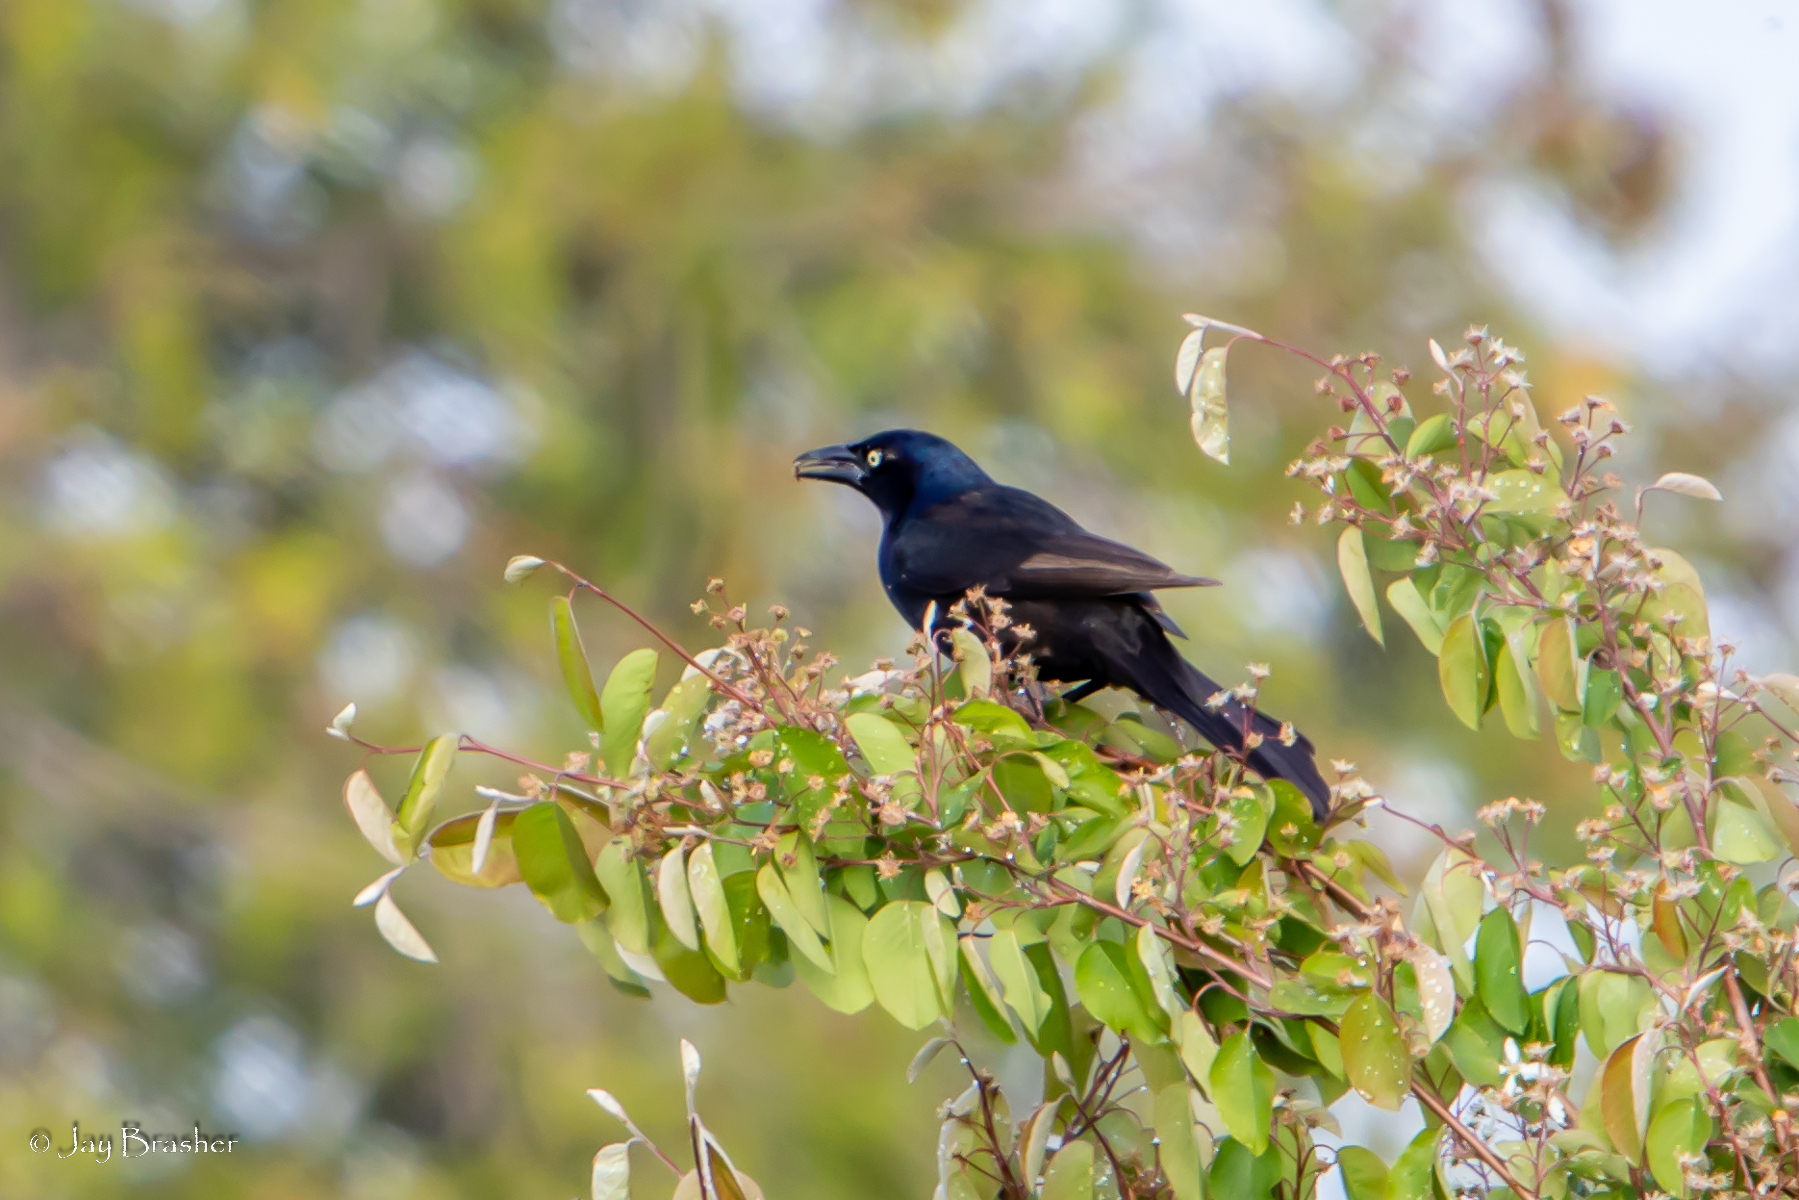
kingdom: Animalia
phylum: Chordata
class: Aves
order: Passeriformes
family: Icteridae
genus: Quiscalus
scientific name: Quiscalus quiscula
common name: Common grackle
